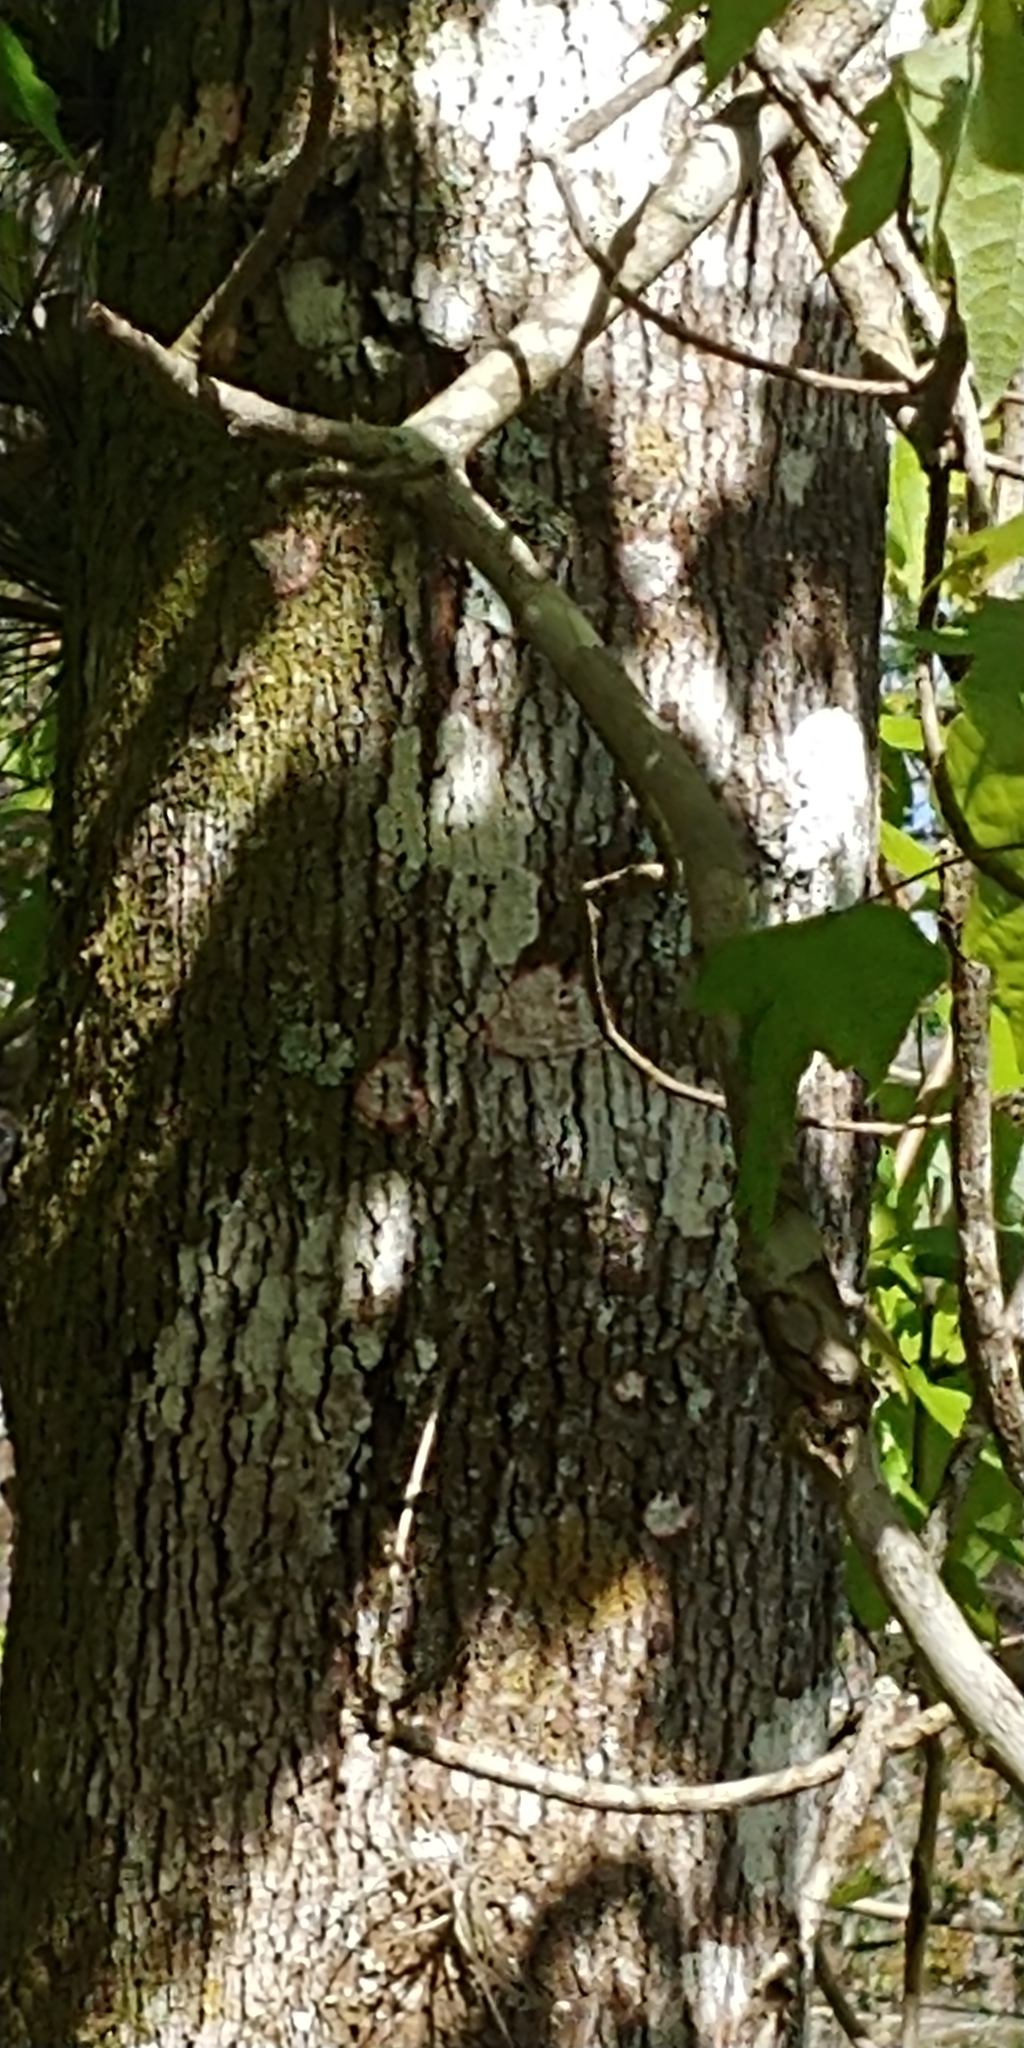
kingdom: Plantae
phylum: Tracheophyta
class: Magnoliopsida
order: Sapindales
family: Sapindaceae
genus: Acer
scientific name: Acer rubrum
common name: Red maple
